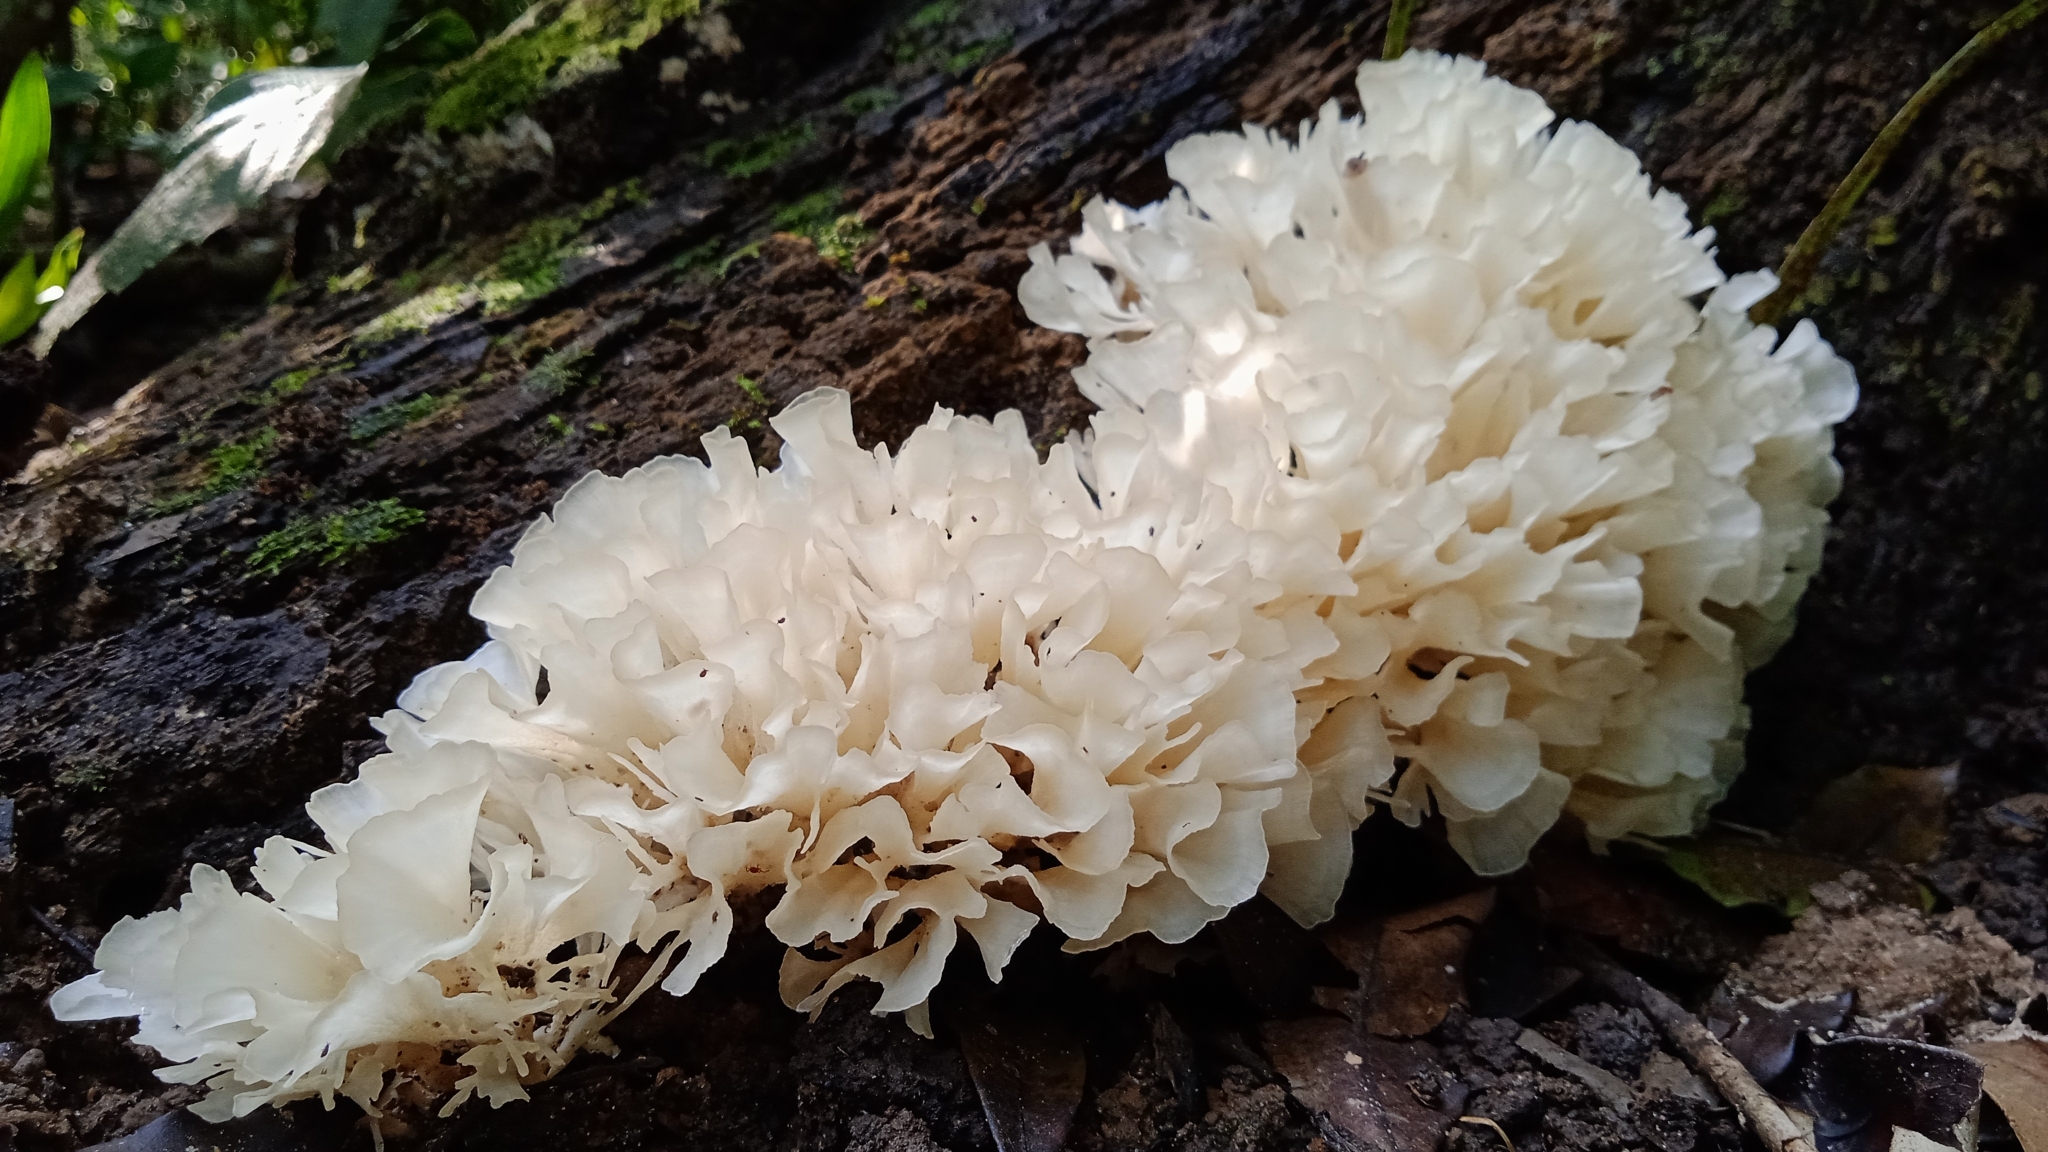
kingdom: Fungi
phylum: Basidiomycota
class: Agaricomycetes
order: Polyporales
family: Irpicaceae
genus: Irpex
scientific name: Irpex rosettiformis
